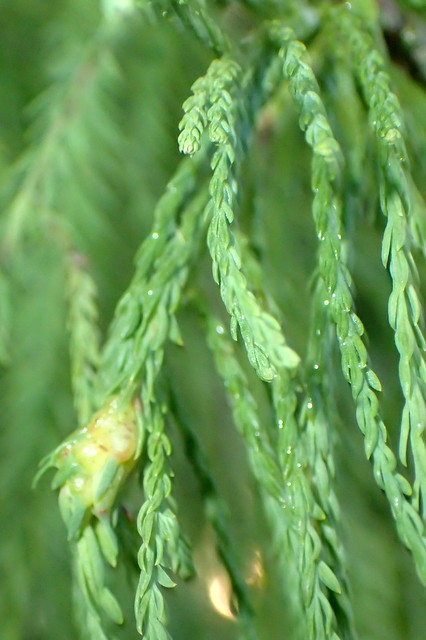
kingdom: Animalia
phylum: Arthropoda
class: Insecta
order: Diptera
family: Cecidomyiidae
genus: Taxodiomyia
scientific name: Taxodiomyia cupressiananassa
